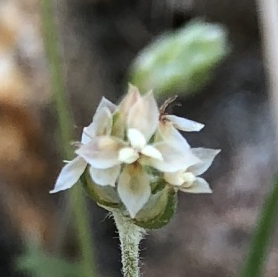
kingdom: Plantae
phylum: Tracheophyta
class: Magnoliopsida
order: Lamiales
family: Plantaginaceae
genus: Plantago
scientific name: Plantago ovata
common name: Blond plantain
